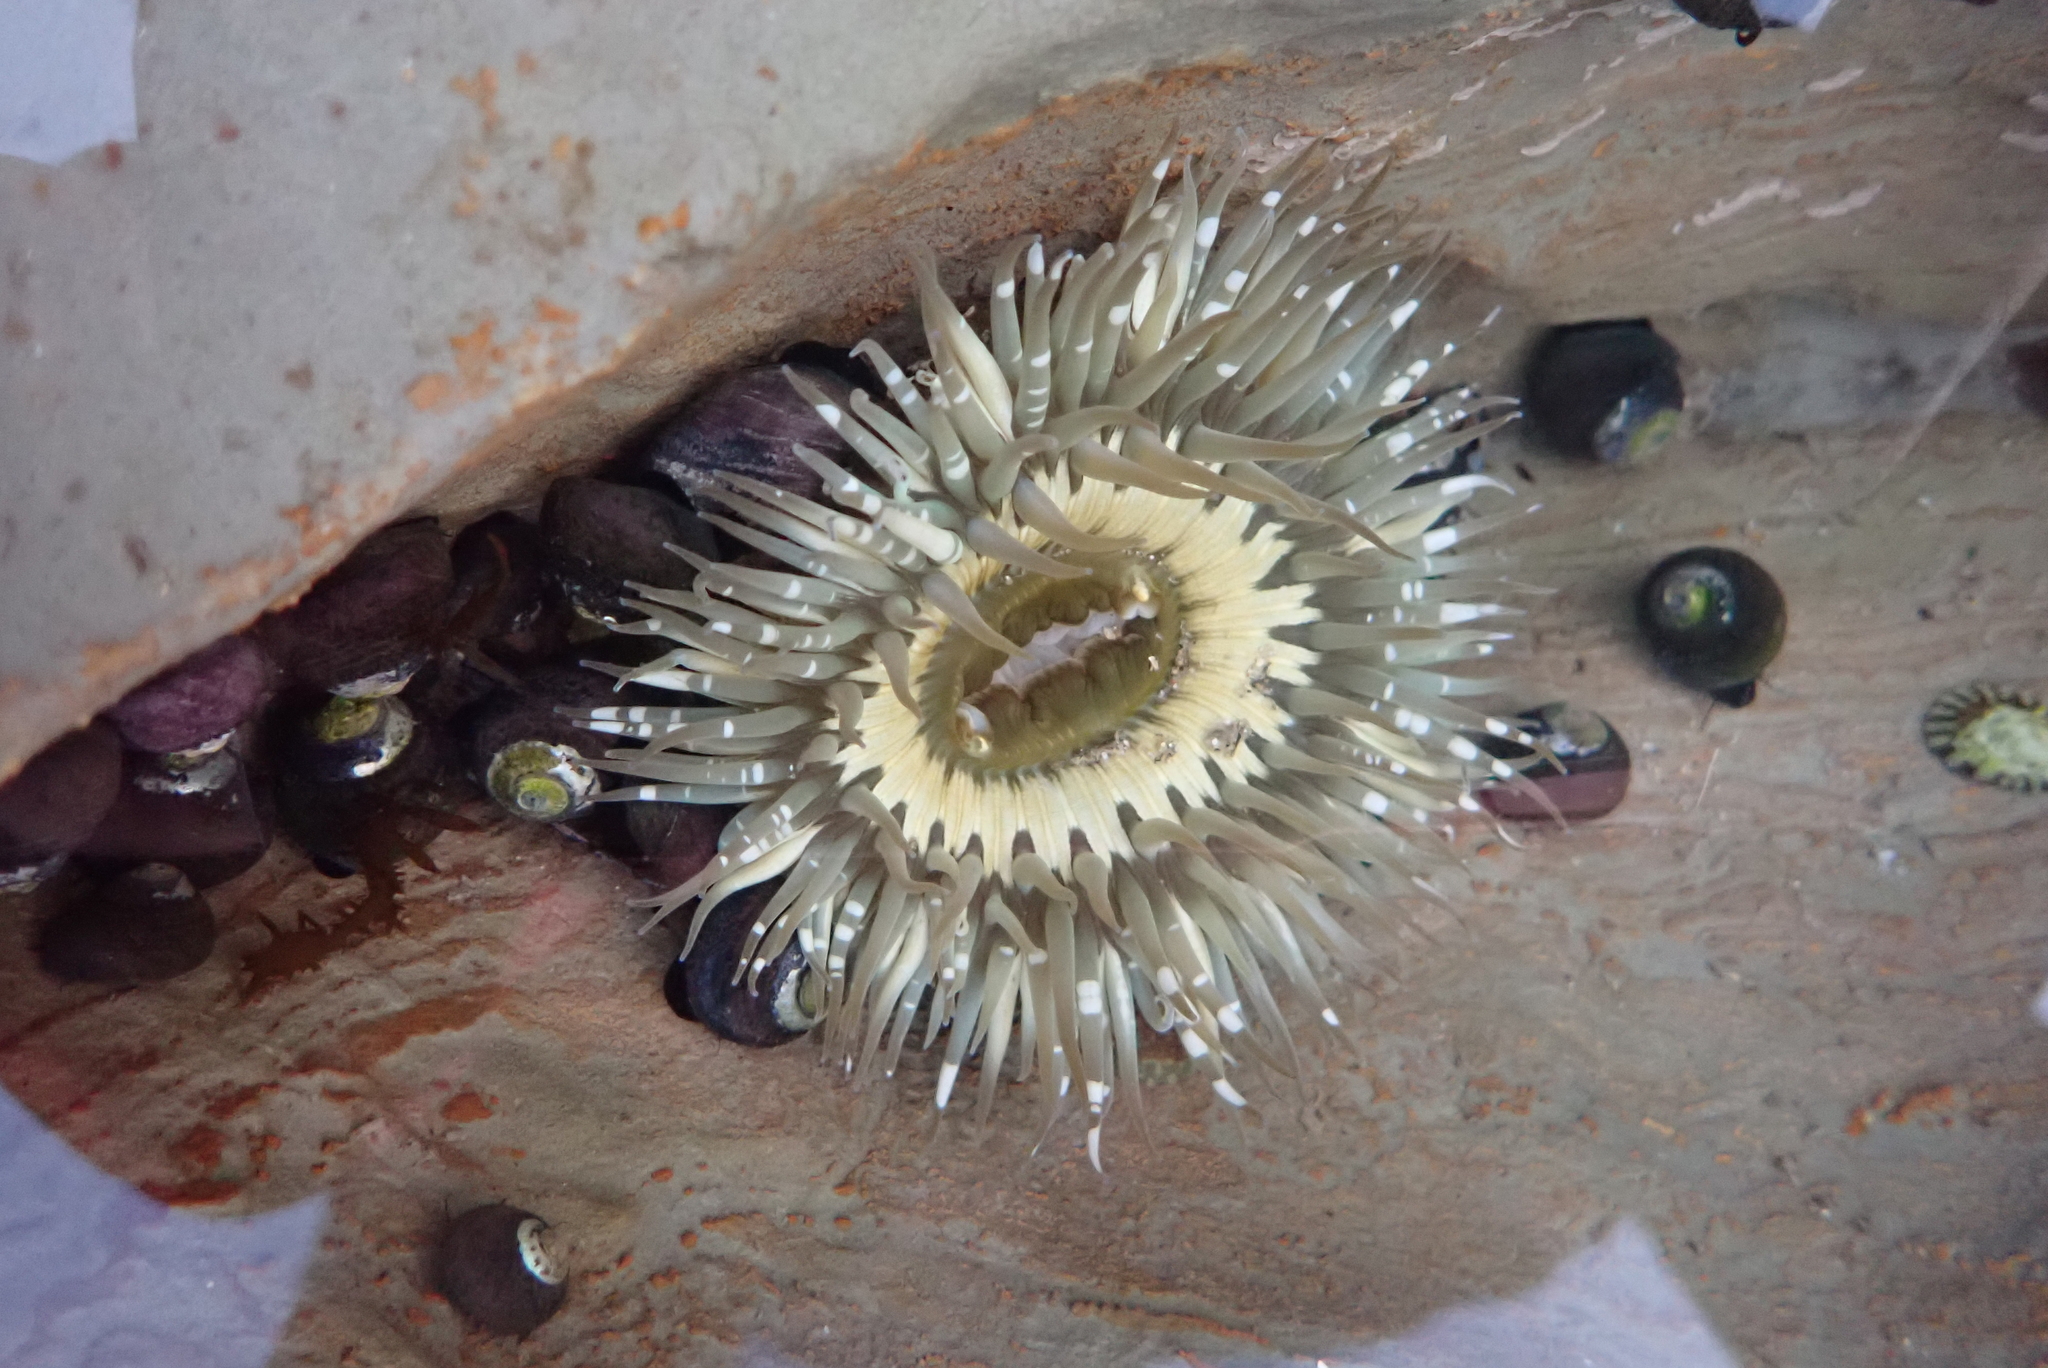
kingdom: Animalia
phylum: Cnidaria
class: Anthozoa
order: Actiniaria
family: Actiniidae
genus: Anthopleura
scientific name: Anthopleura sola
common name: Sun anemone
